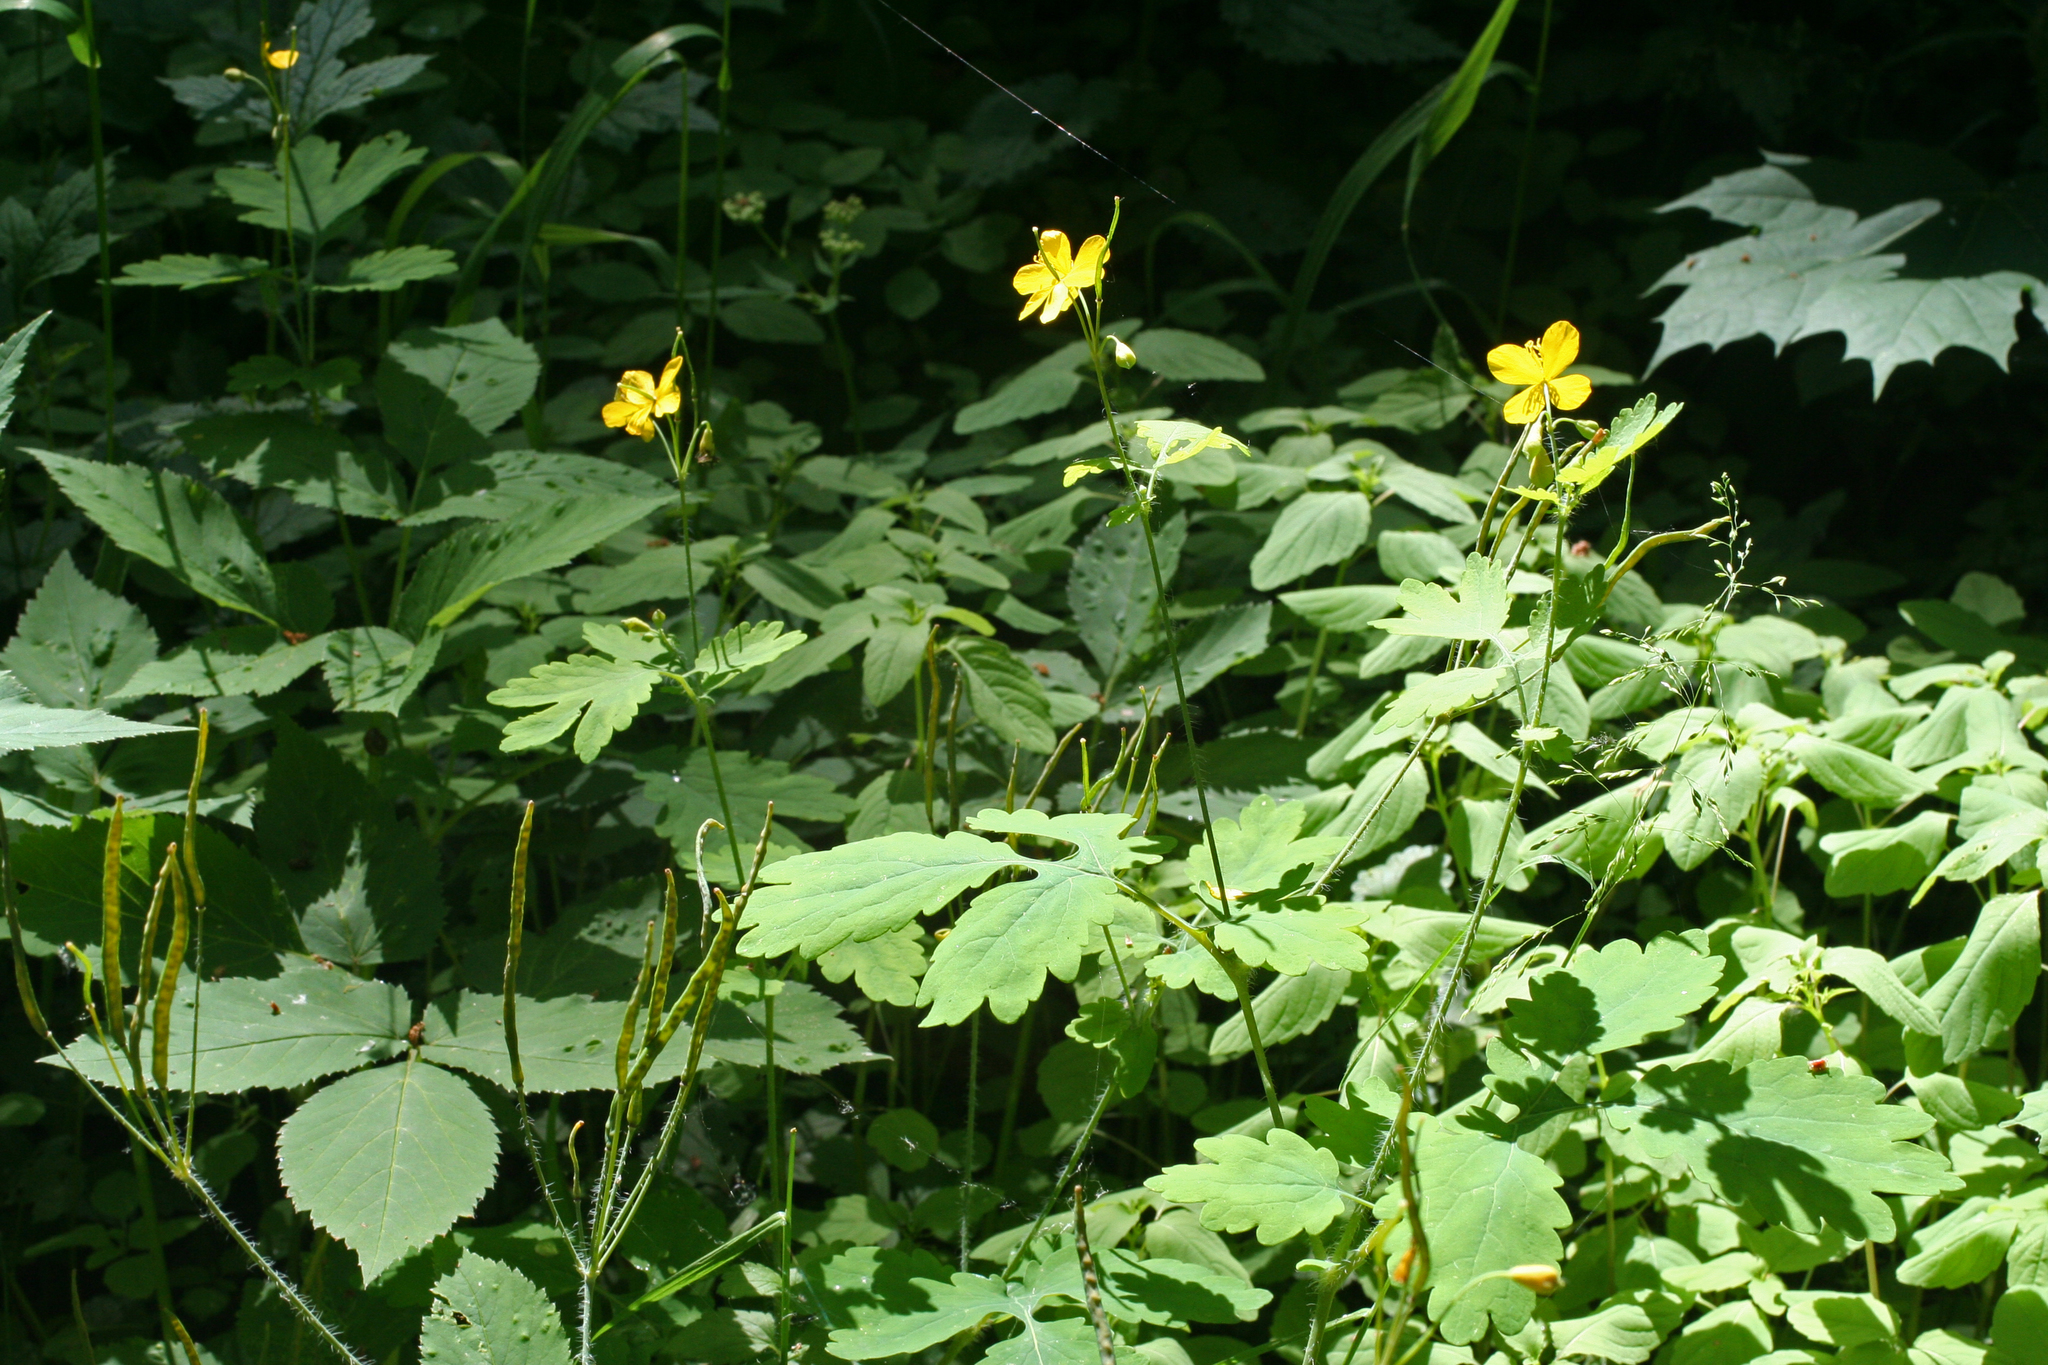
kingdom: Plantae
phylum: Tracheophyta
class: Magnoliopsida
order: Ranunculales
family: Papaveraceae
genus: Chelidonium
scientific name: Chelidonium majus
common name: Greater celandine
